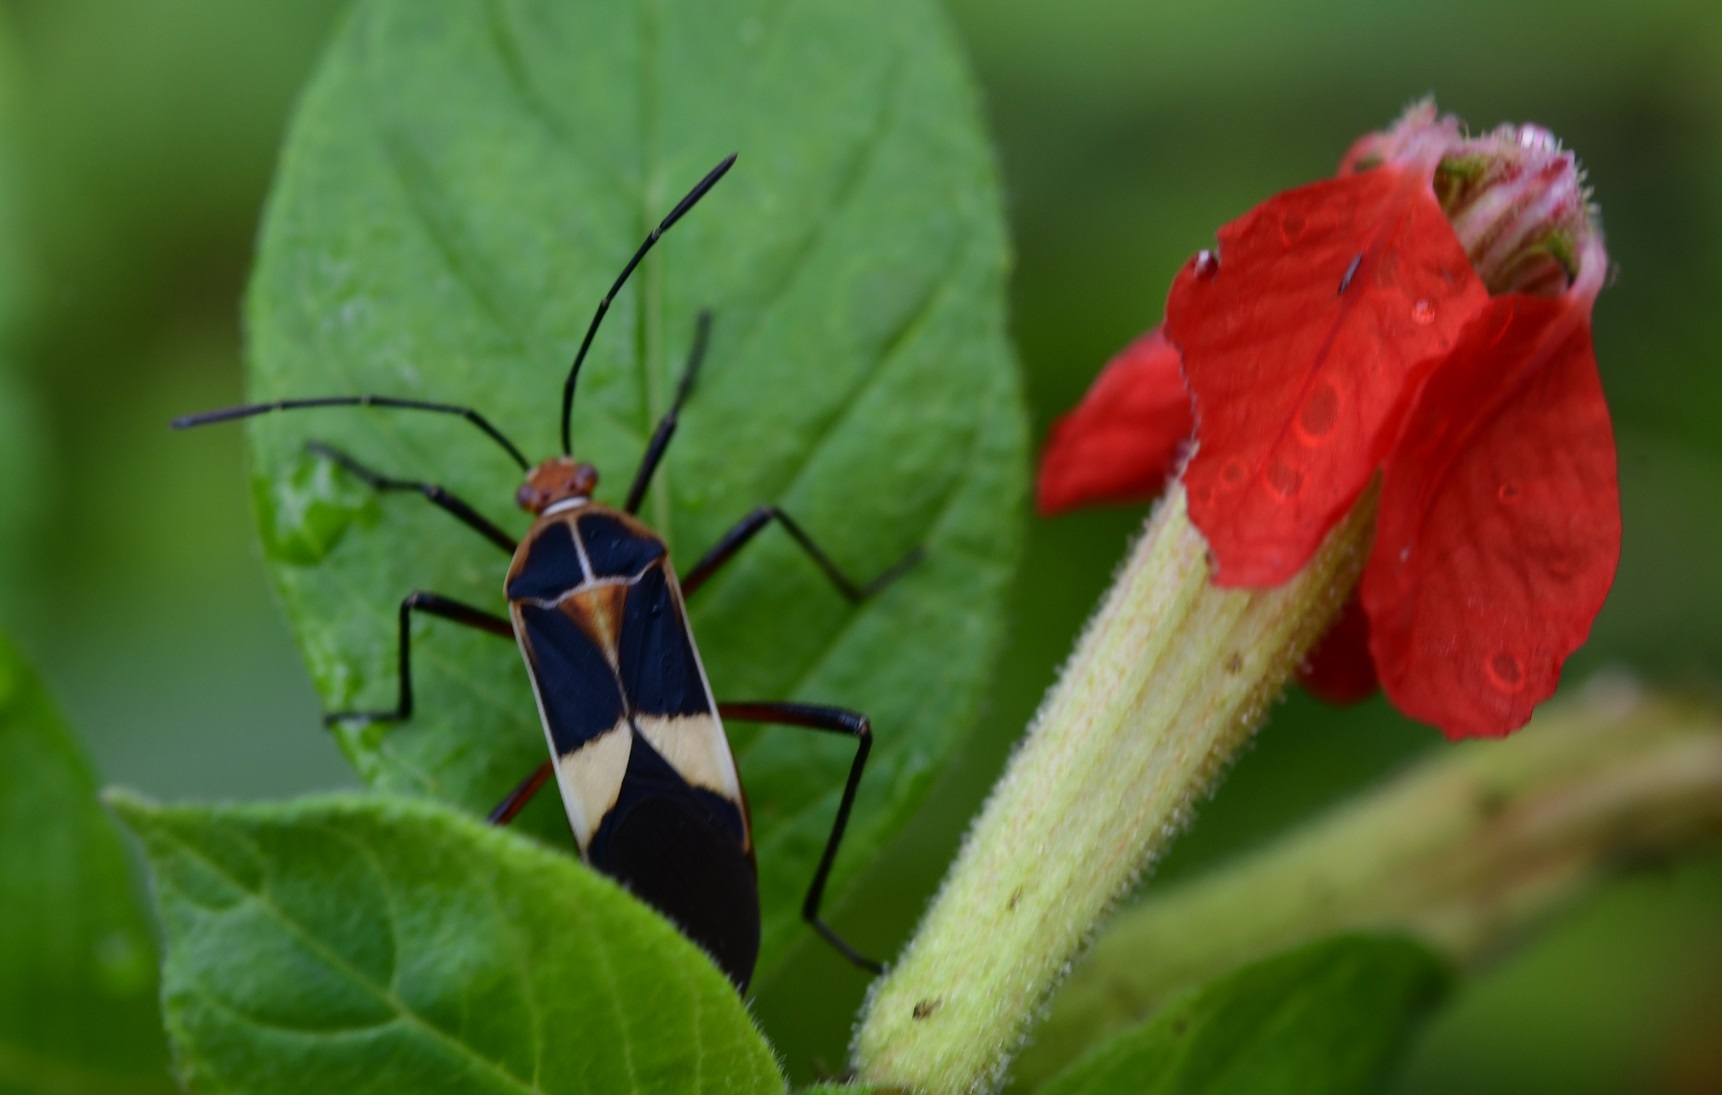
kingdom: Animalia
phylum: Arthropoda
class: Insecta
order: Hemiptera
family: Coreidae
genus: Hypselonotus
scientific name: Hypselonotus interruptus
